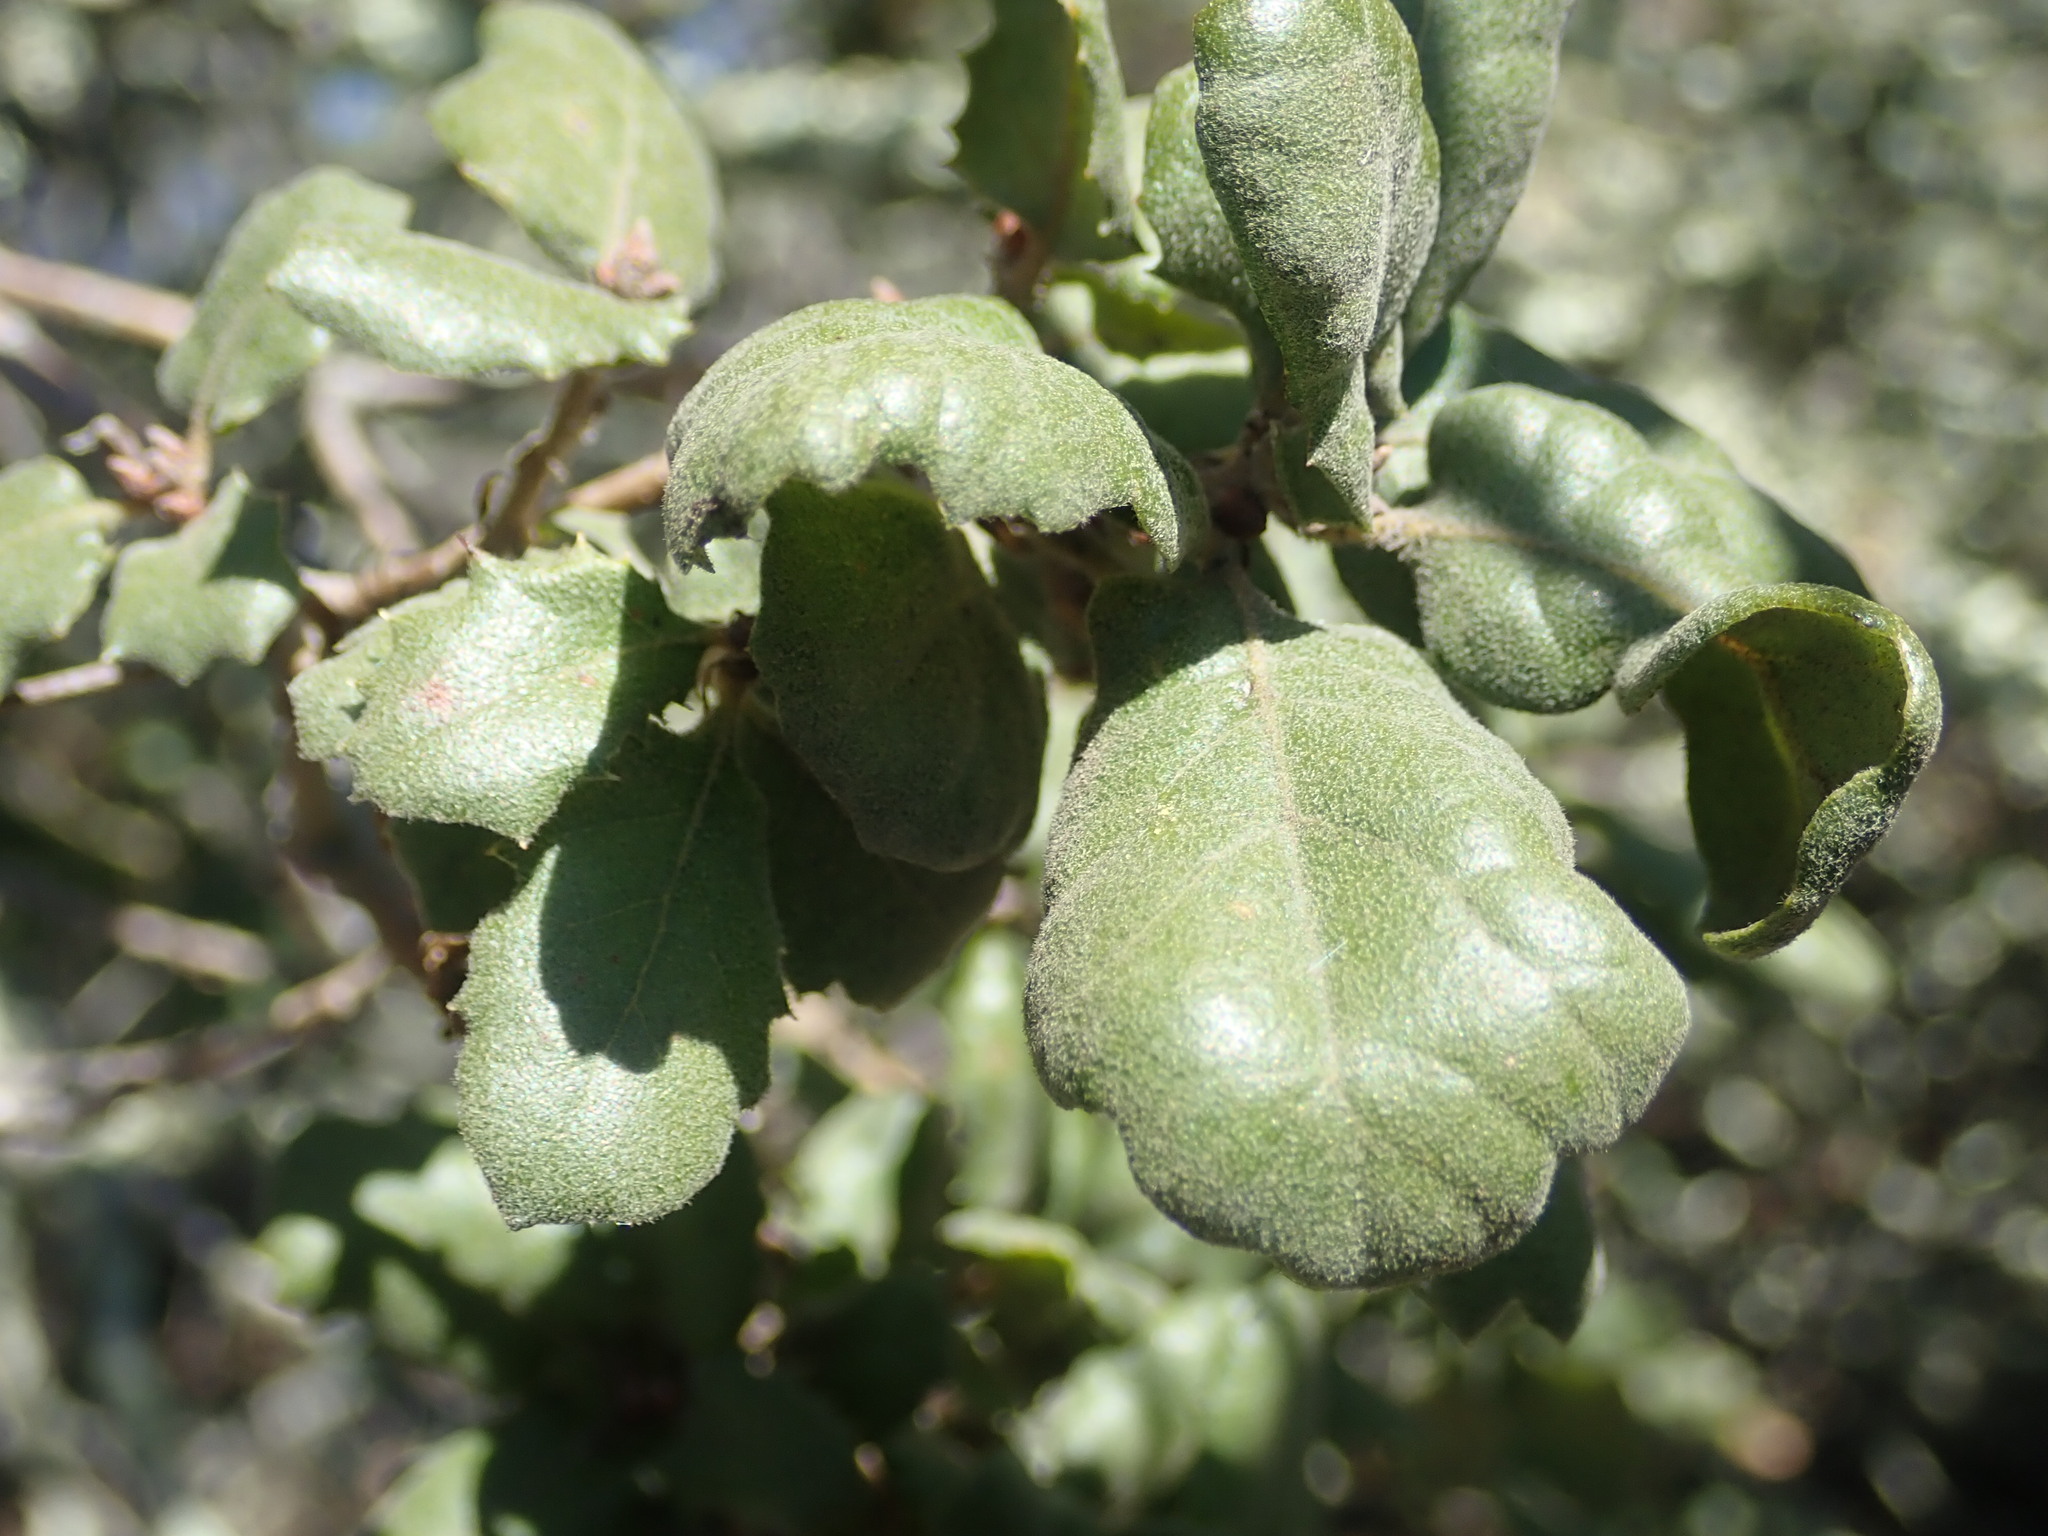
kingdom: Animalia
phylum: Arthropoda
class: Insecta
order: Hymenoptera
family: Cynipidae
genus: Andricus
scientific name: Andricus
